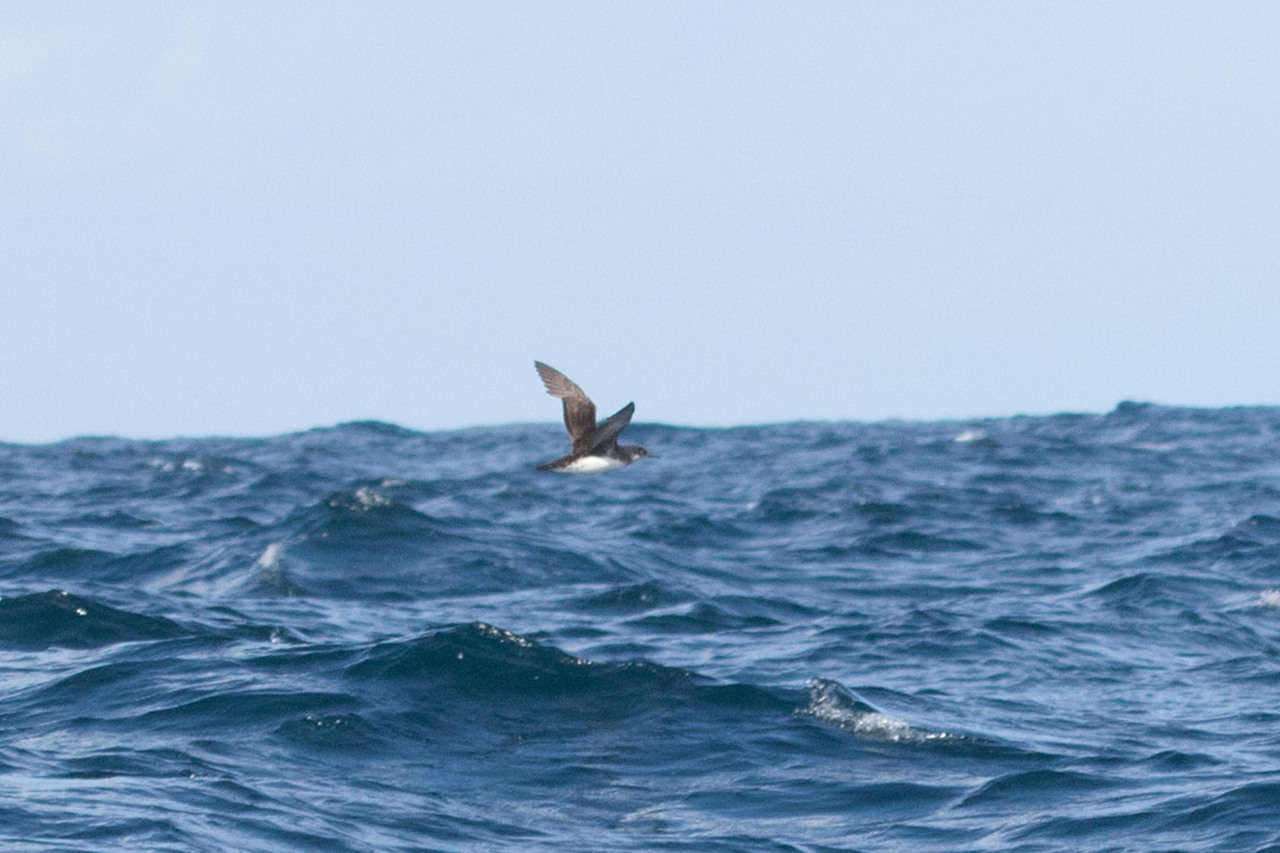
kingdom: Animalia
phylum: Chordata
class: Aves
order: Procellariiformes
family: Procellariidae
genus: Puffinus
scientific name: Puffinus huttoni
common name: Hutton's shearwater
